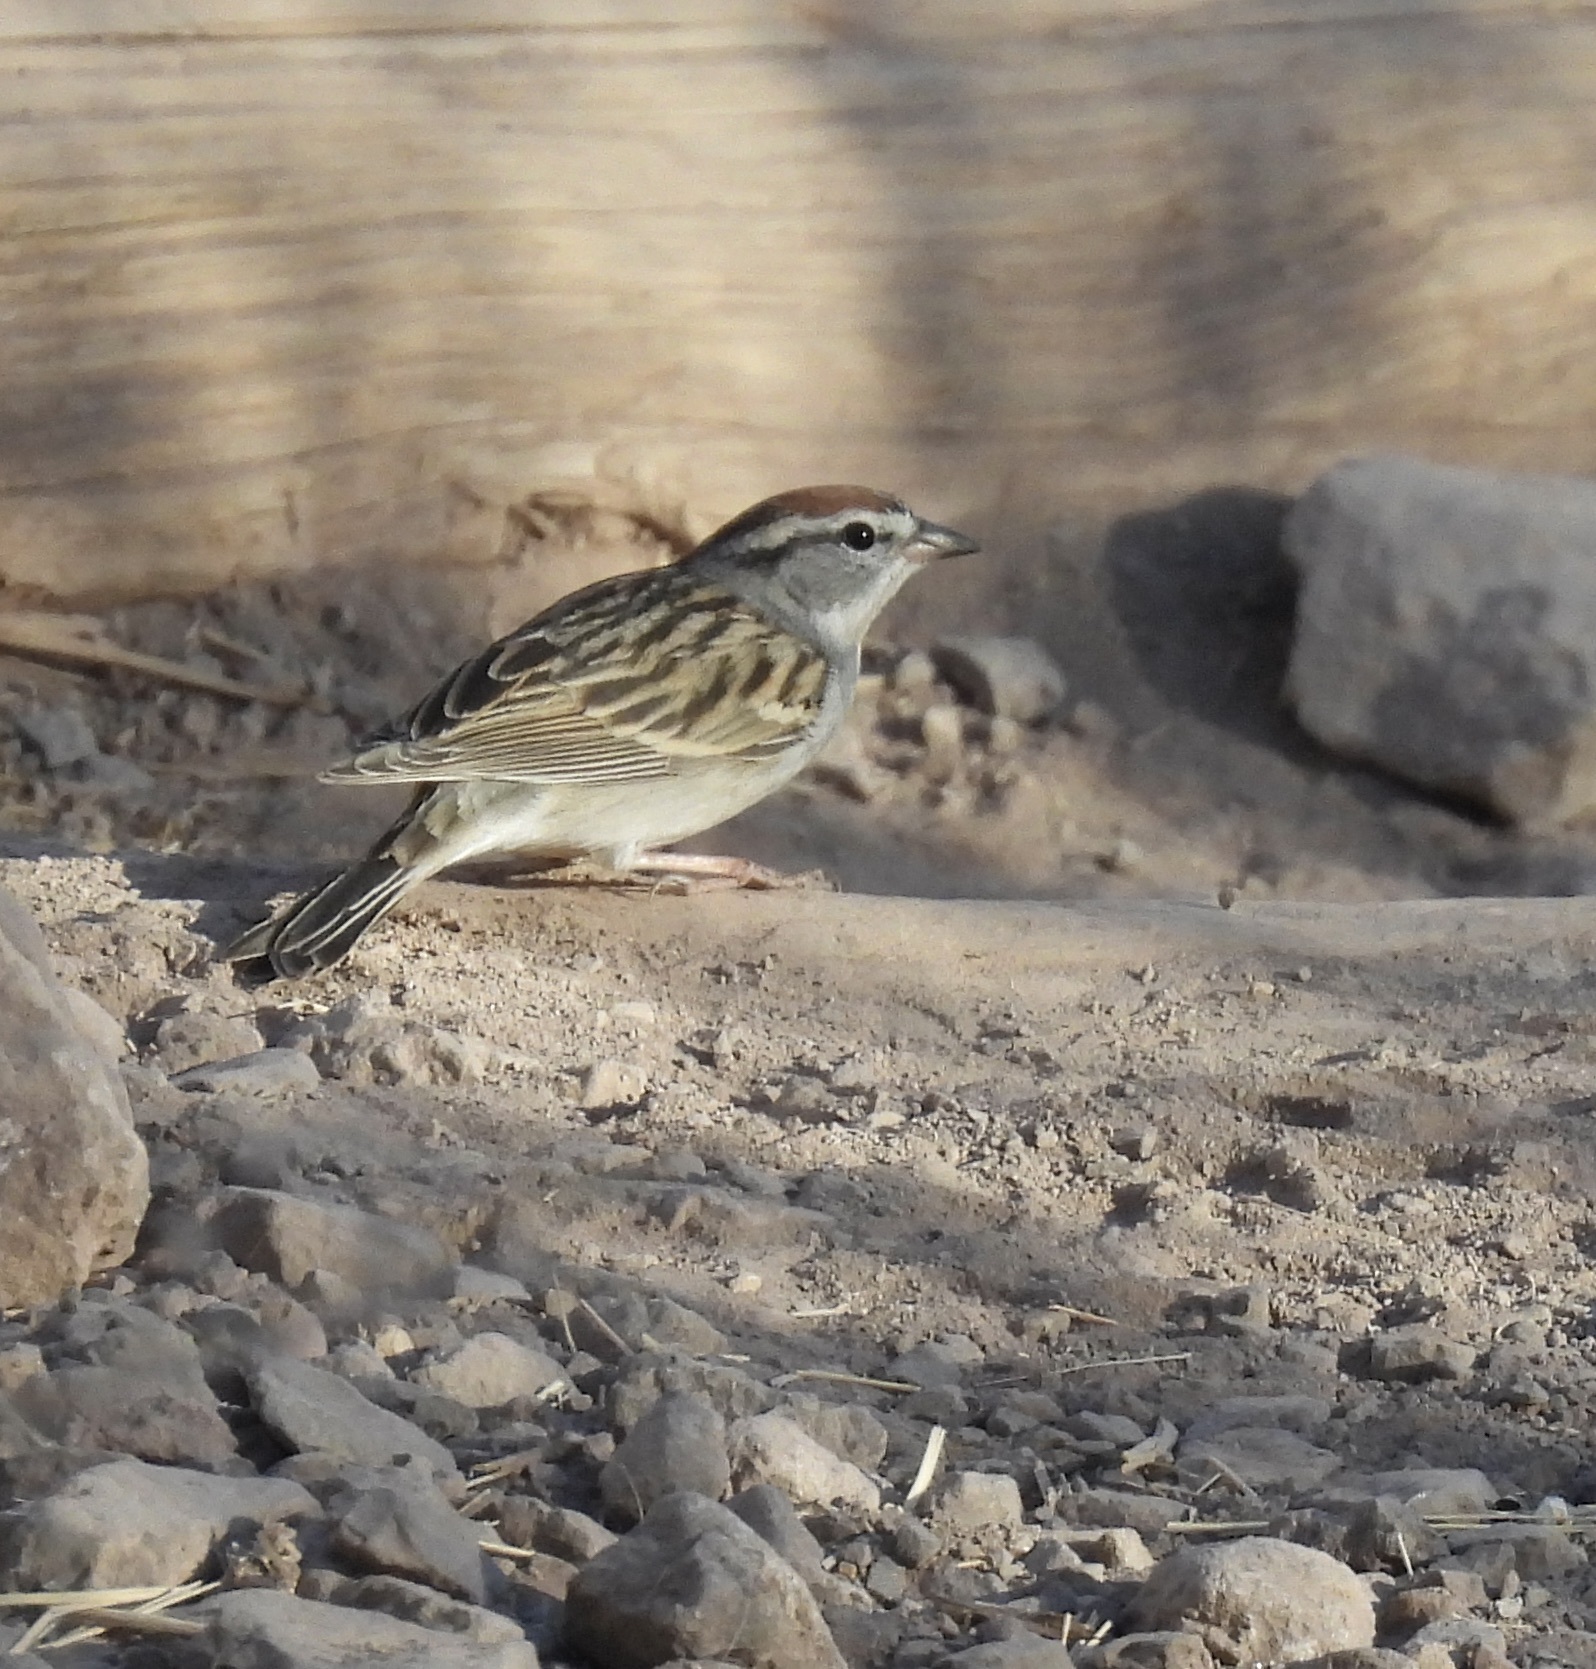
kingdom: Animalia
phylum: Chordata
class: Aves
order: Passeriformes
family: Passerellidae
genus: Spizella
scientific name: Spizella passerina
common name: Chipping sparrow
